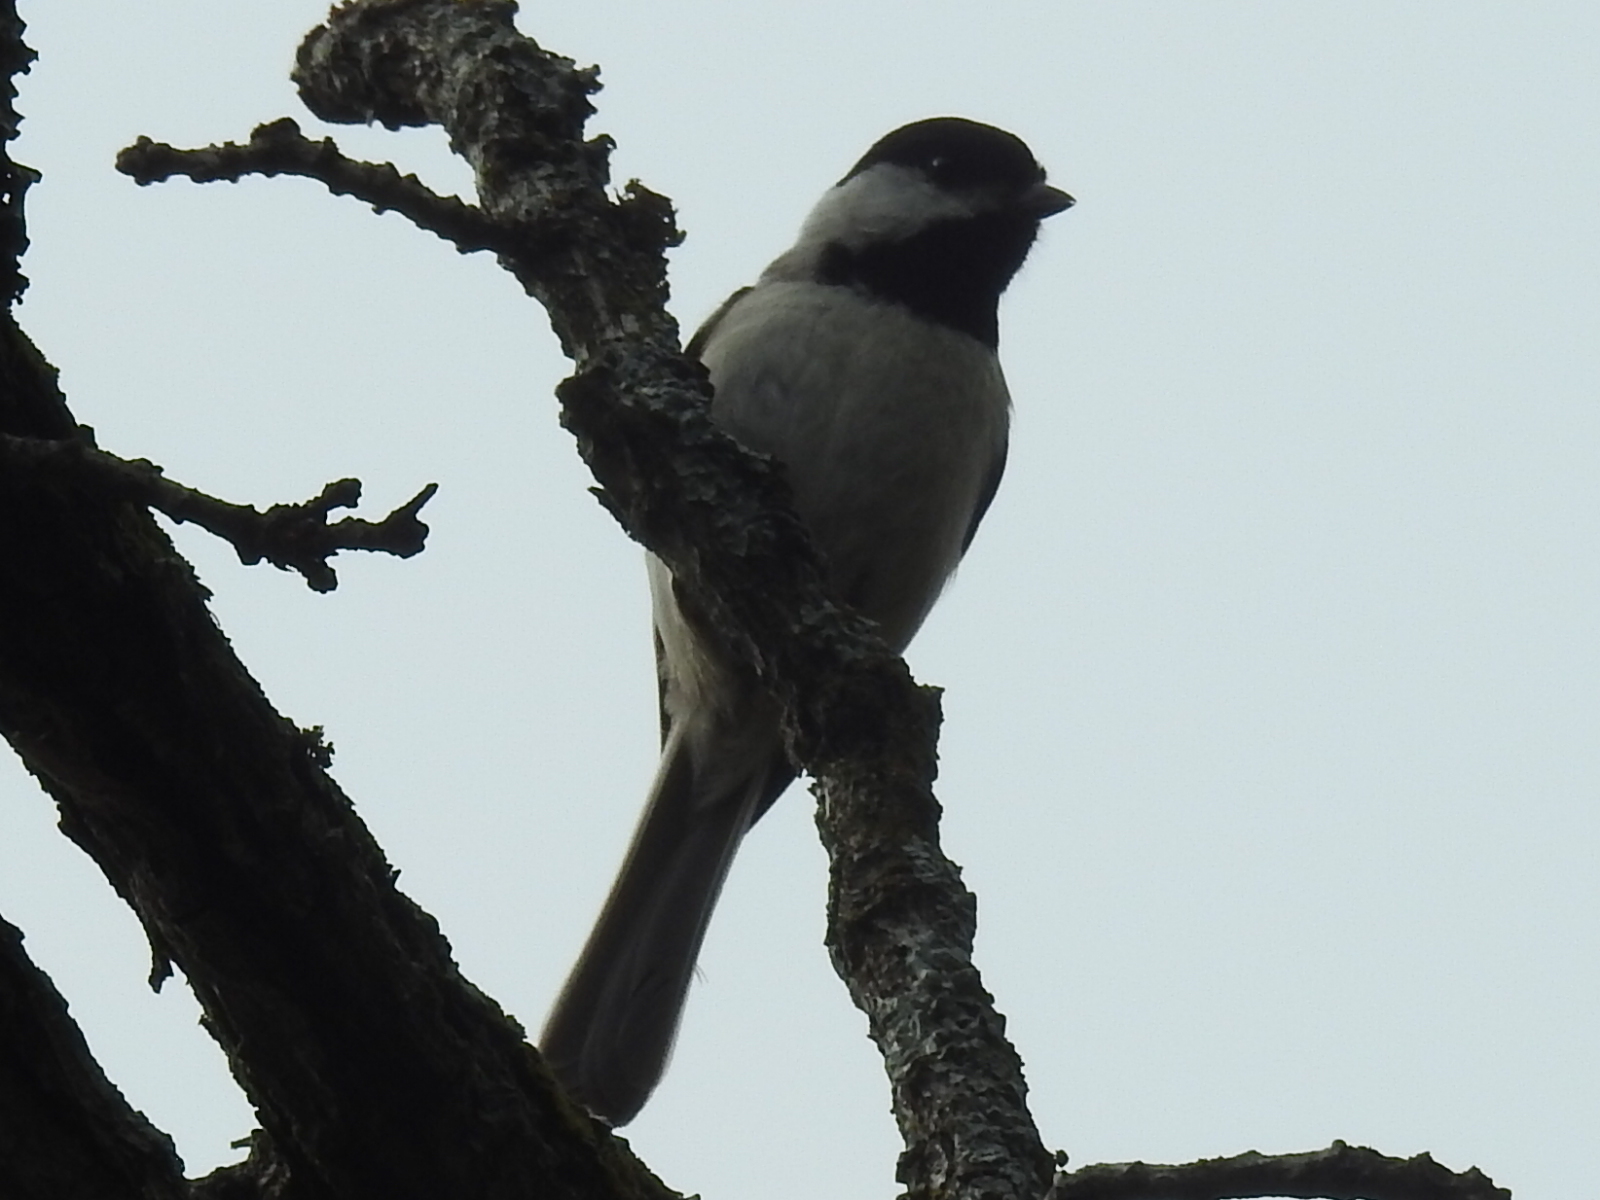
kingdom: Animalia
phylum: Chordata
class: Aves
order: Passeriformes
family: Paridae
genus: Poecile
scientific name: Poecile carolinensis
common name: Carolina chickadee
